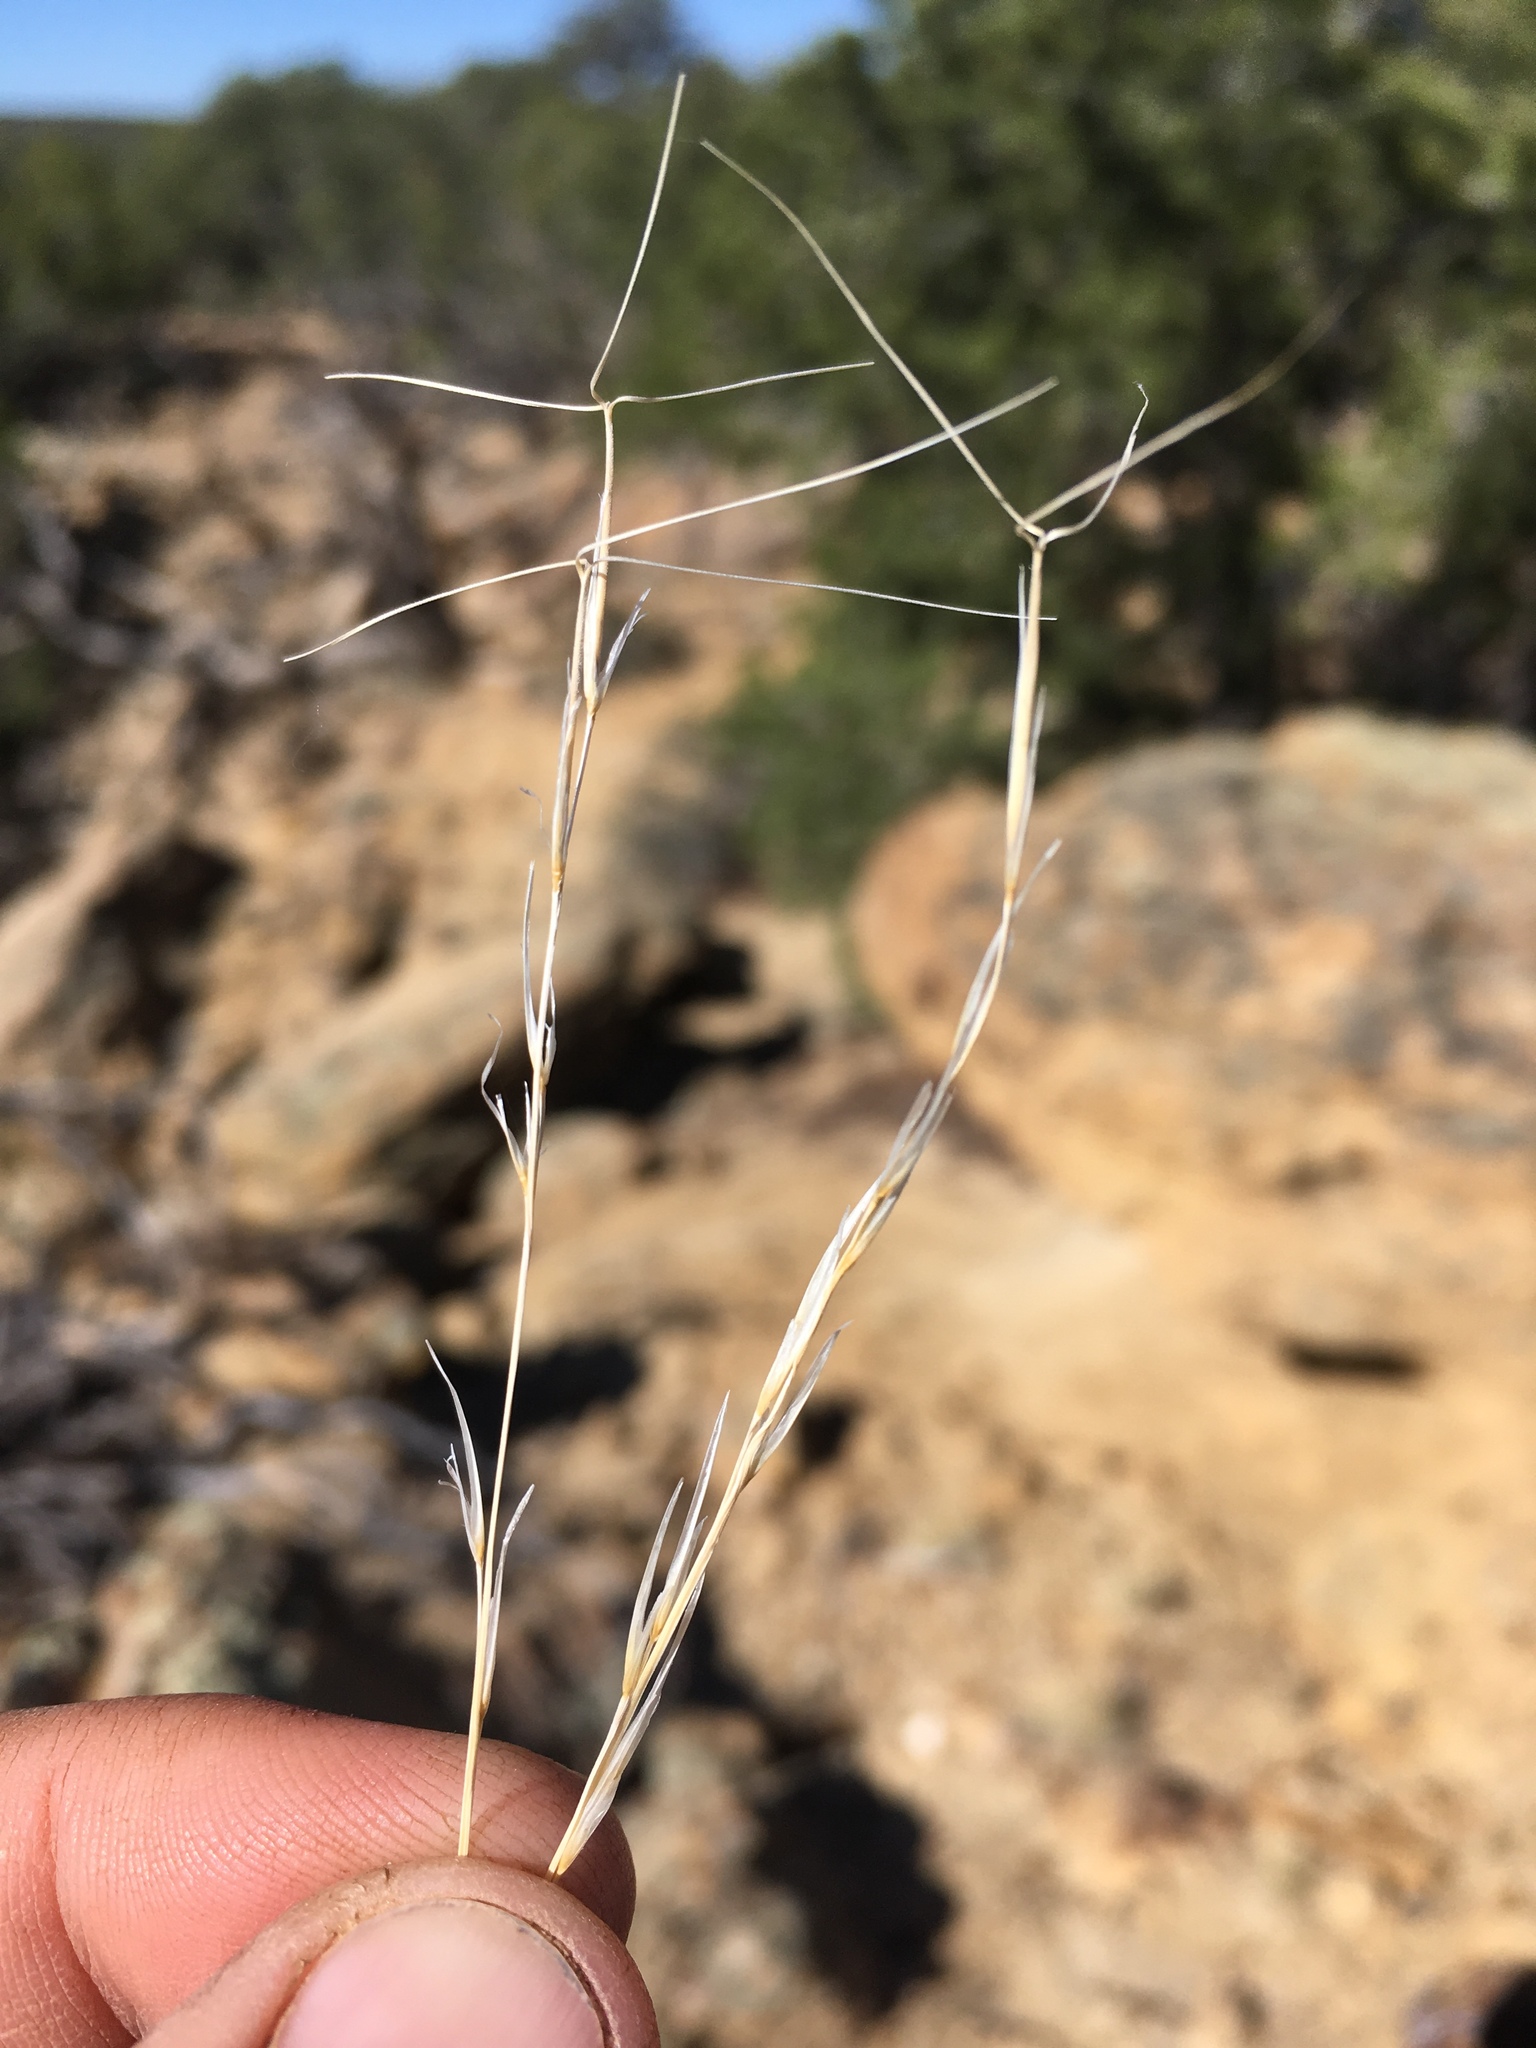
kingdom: Plantae
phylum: Tracheophyta
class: Liliopsida
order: Poales
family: Poaceae
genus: Aristida
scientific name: Aristida purpurea
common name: Purple threeawn
